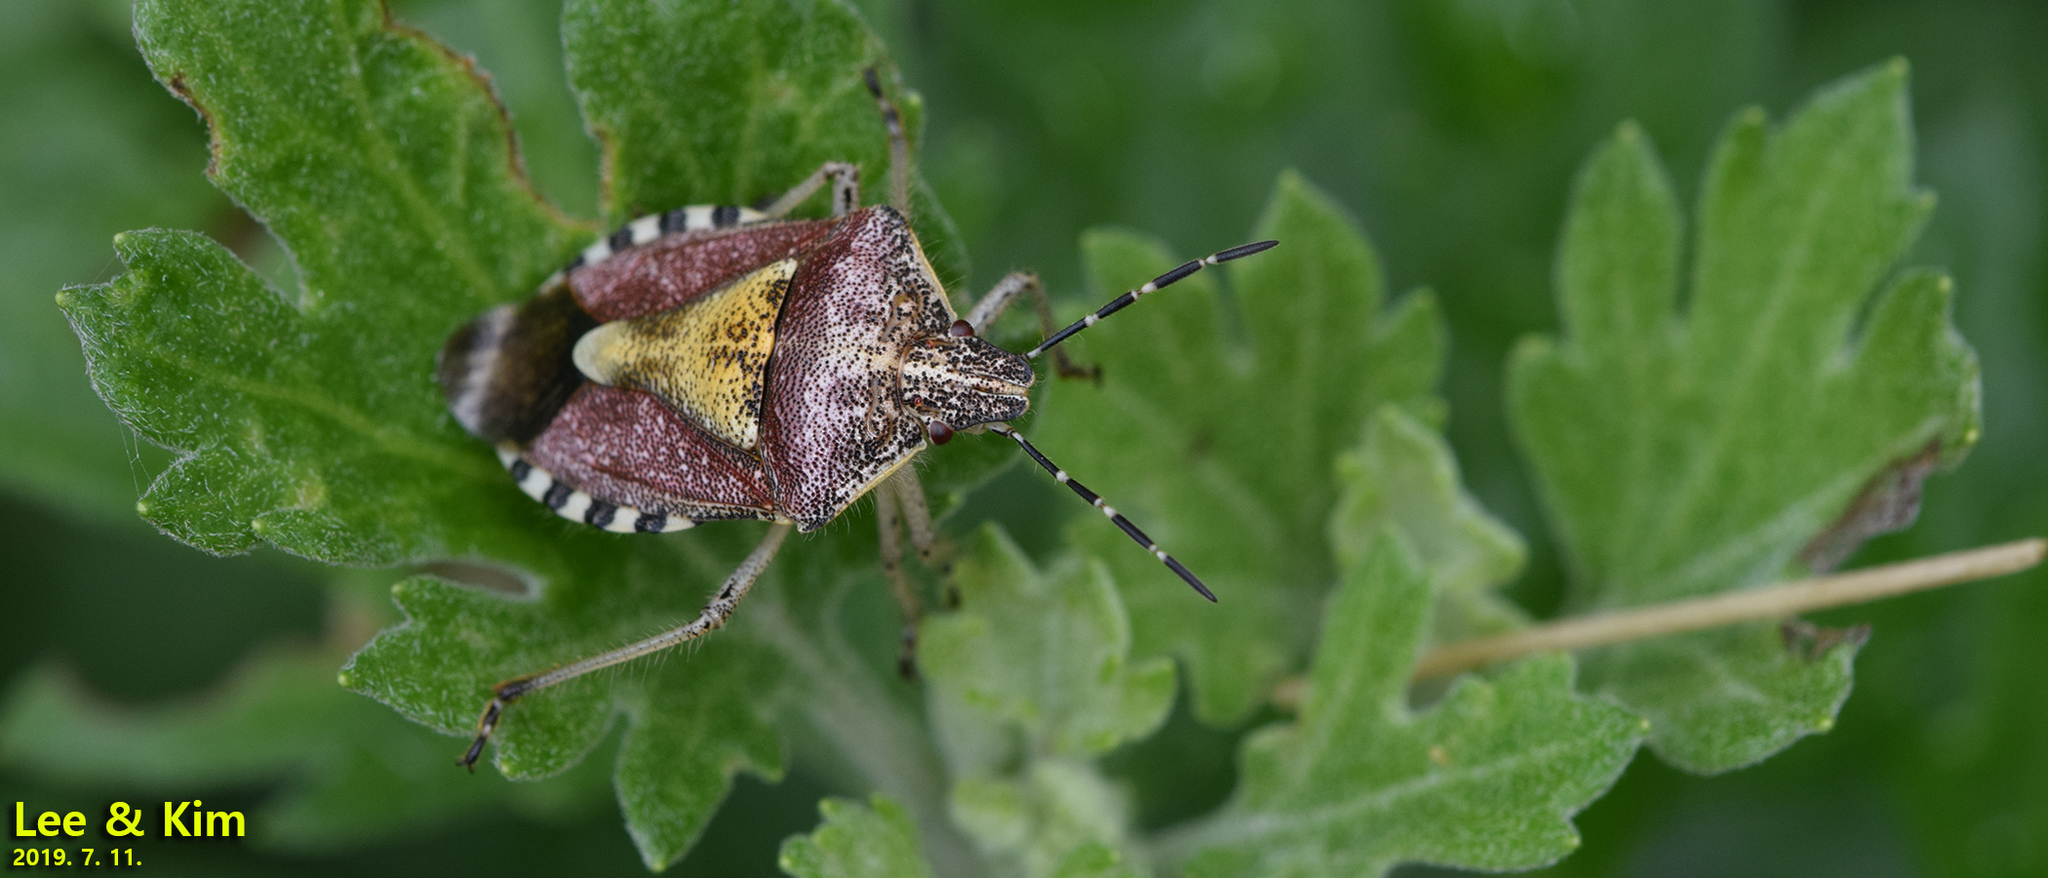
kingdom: Animalia
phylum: Arthropoda
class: Insecta
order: Hemiptera
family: Pentatomidae
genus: Dolycoris
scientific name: Dolycoris baccarum
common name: Sloe bug
